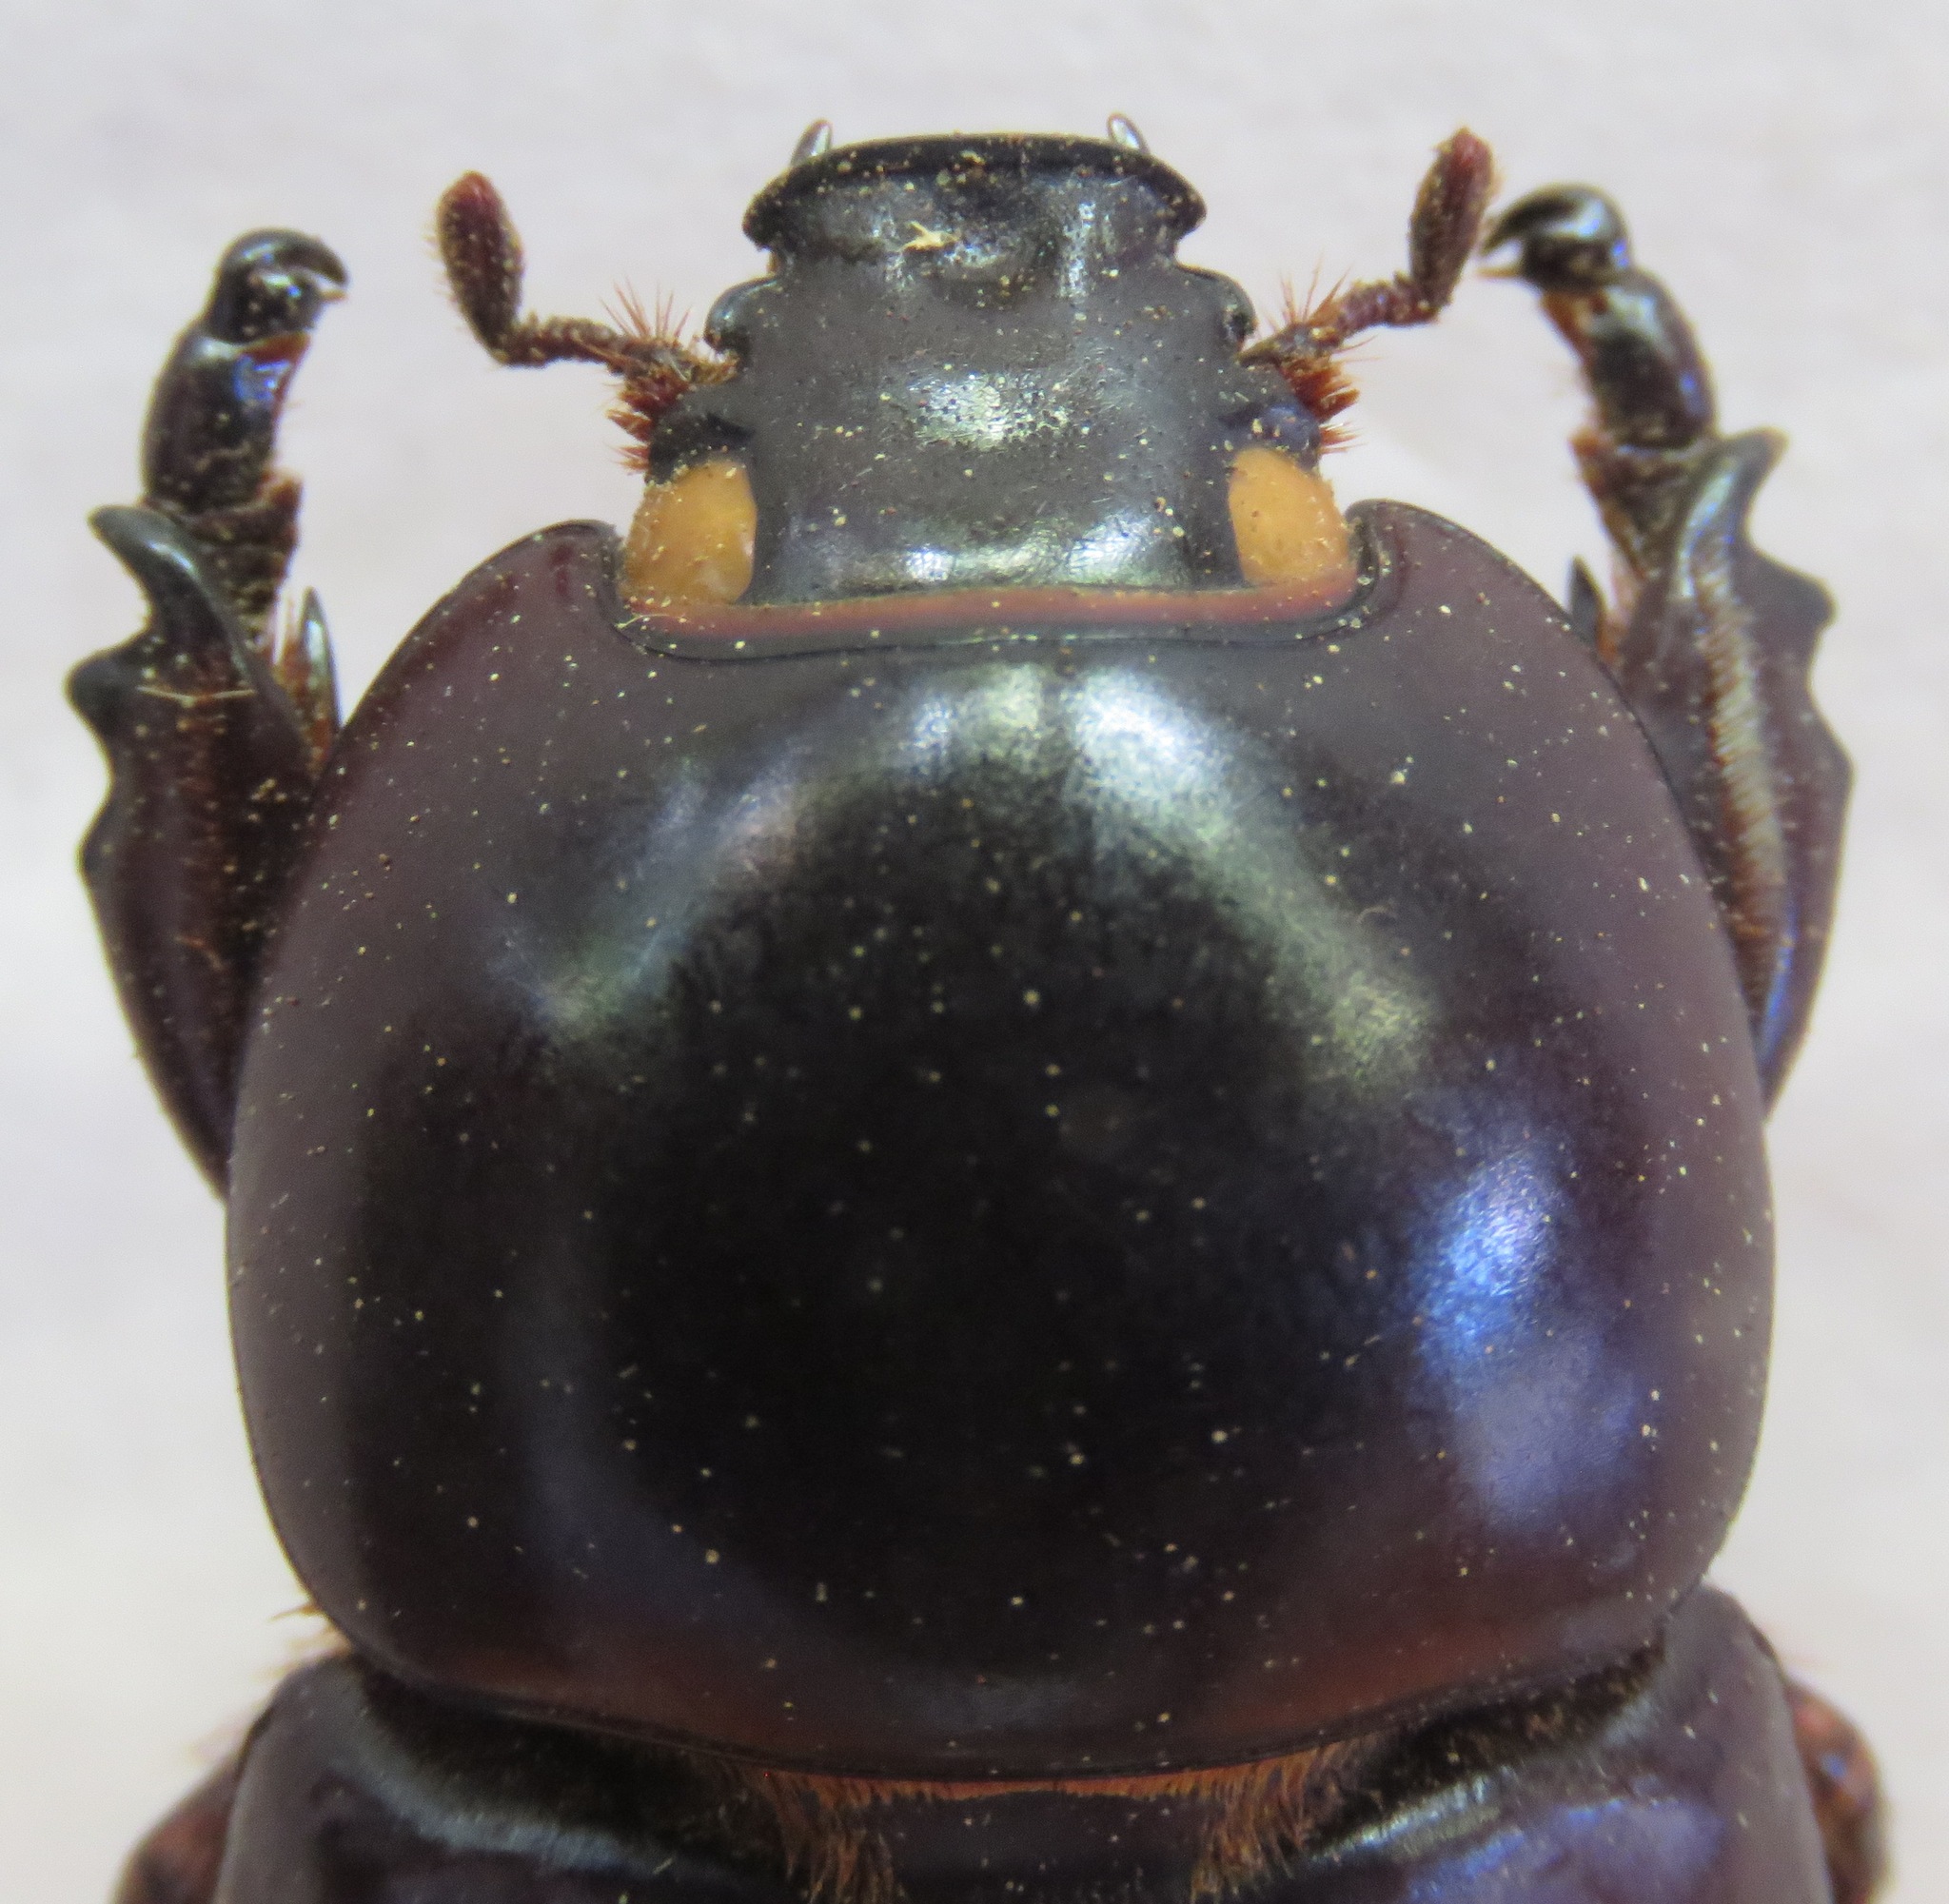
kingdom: Animalia
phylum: Arthropoda
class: Insecta
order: Coleoptera
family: Scarabaeidae
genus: Oryctoderus
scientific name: Oryctoderus latitarsis
